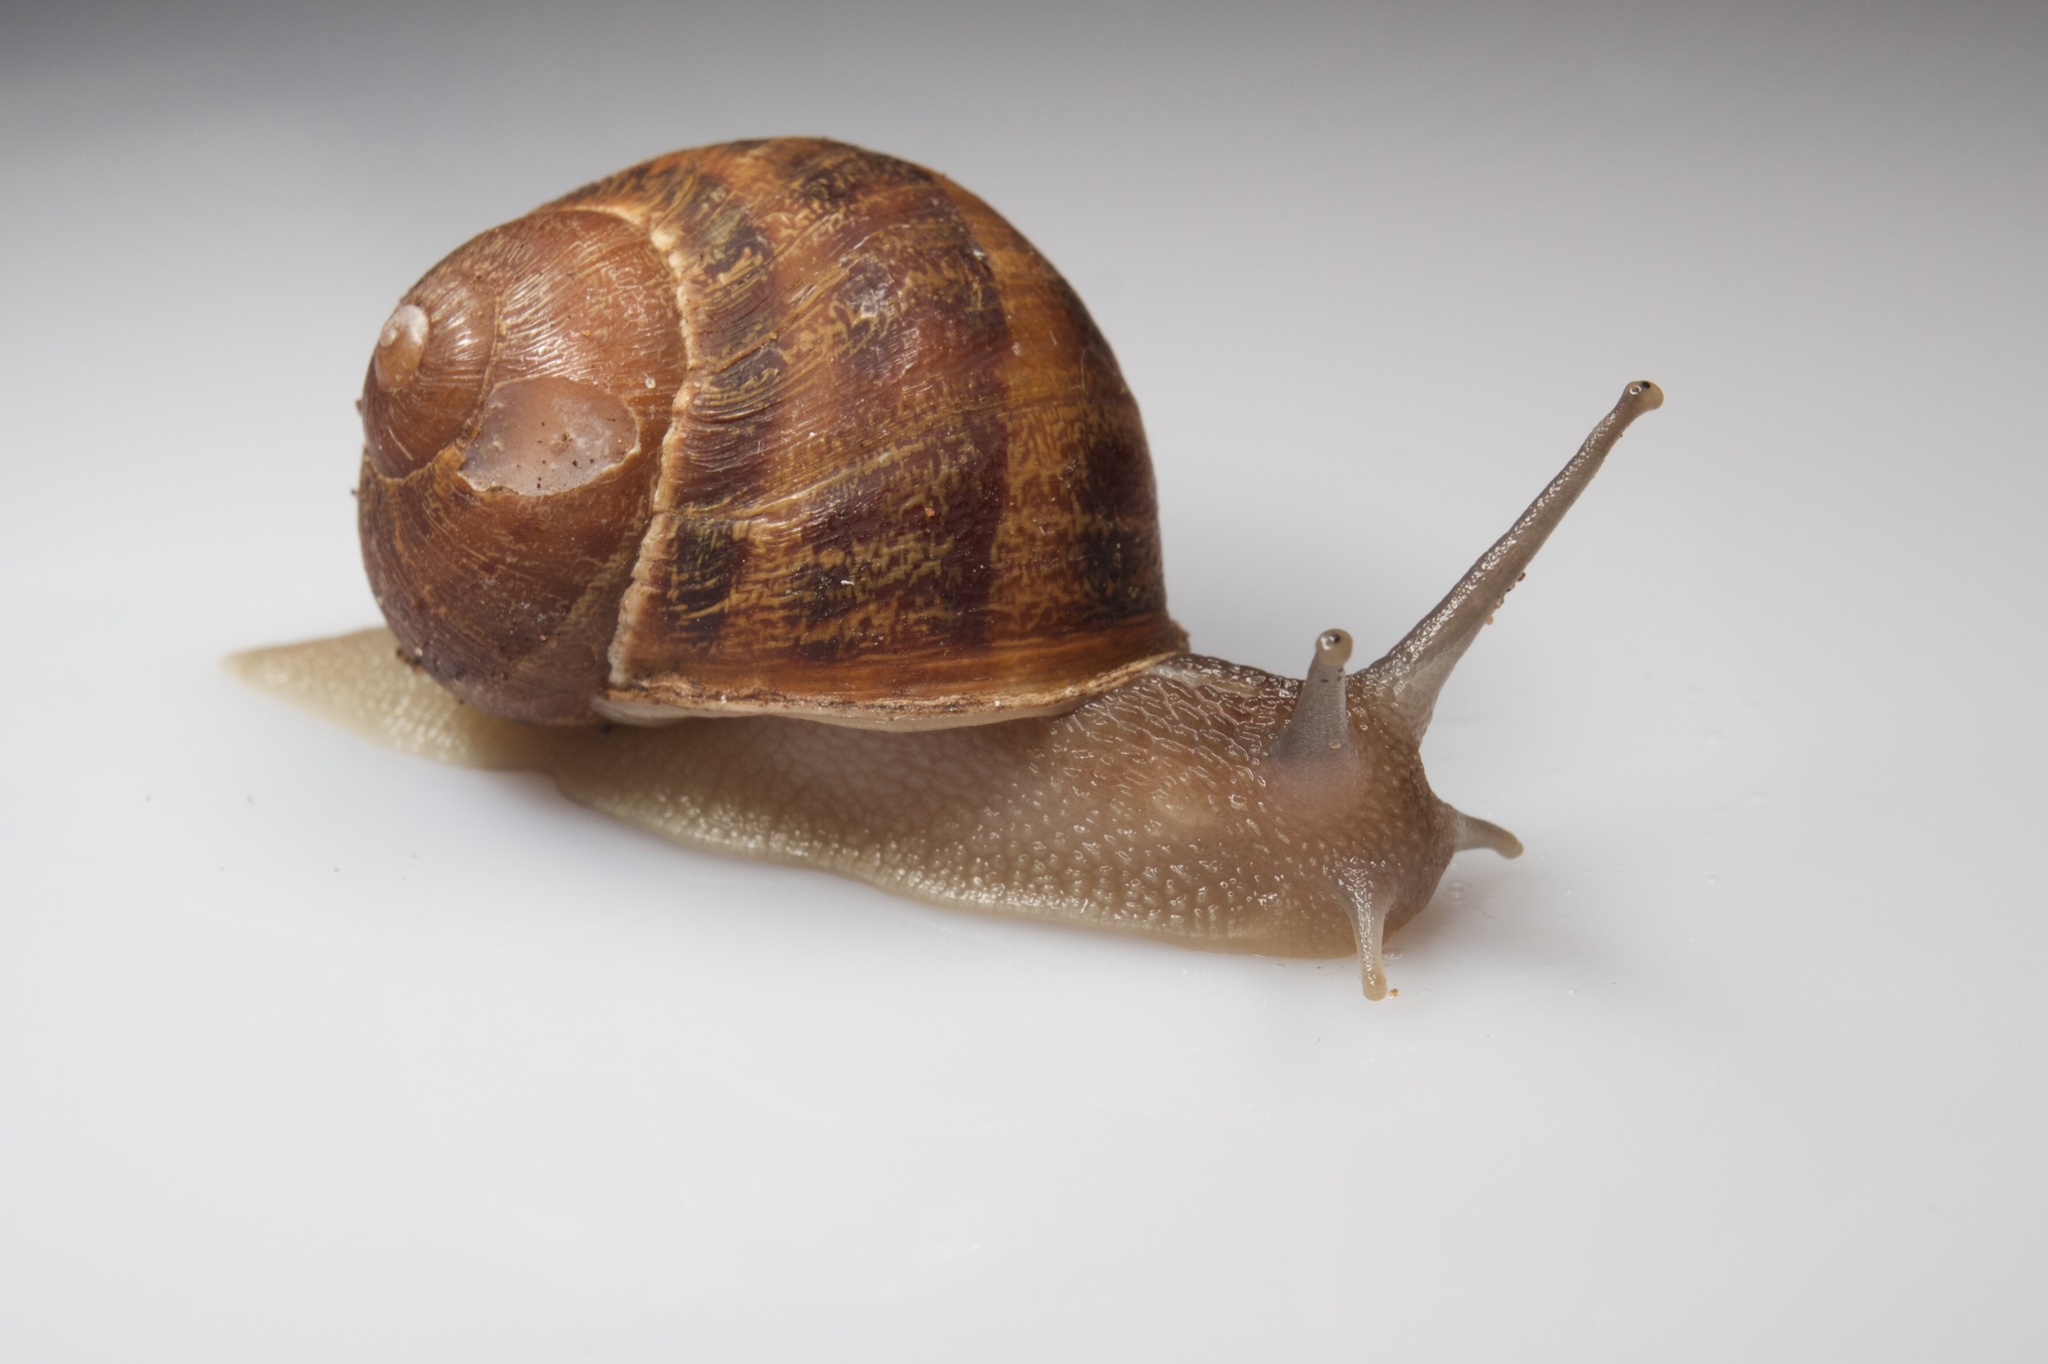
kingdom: Animalia
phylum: Mollusca
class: Gastropoda
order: Stylommatophora
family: Helicidae
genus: Cornu
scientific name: Cornu aspersum
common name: Brown garden snail
